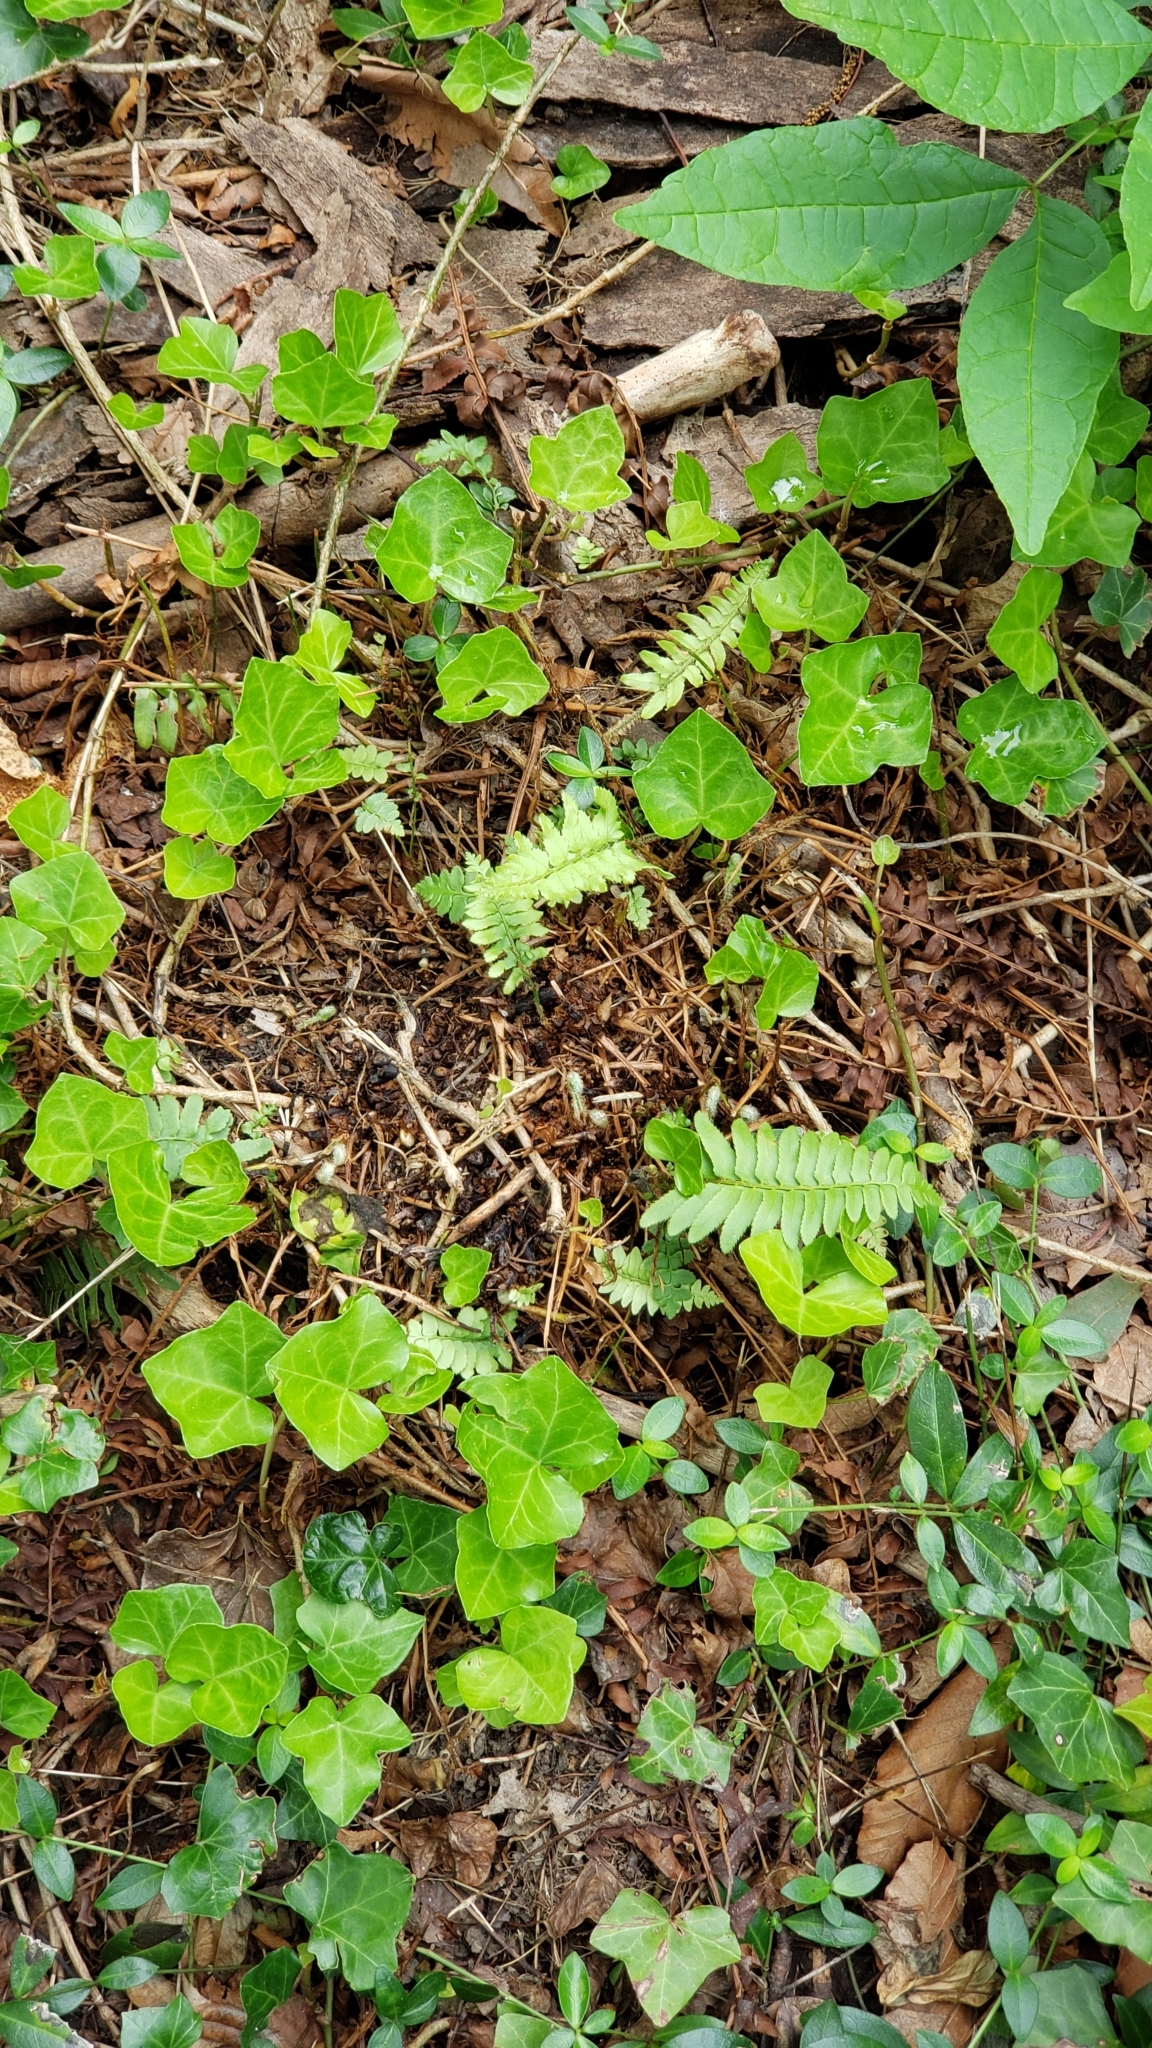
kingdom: Plantae
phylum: Tracheophyta
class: Magnoliopsida
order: Apiales
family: Araliaceae
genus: Hedera
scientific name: Hedera helix
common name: Ivy
